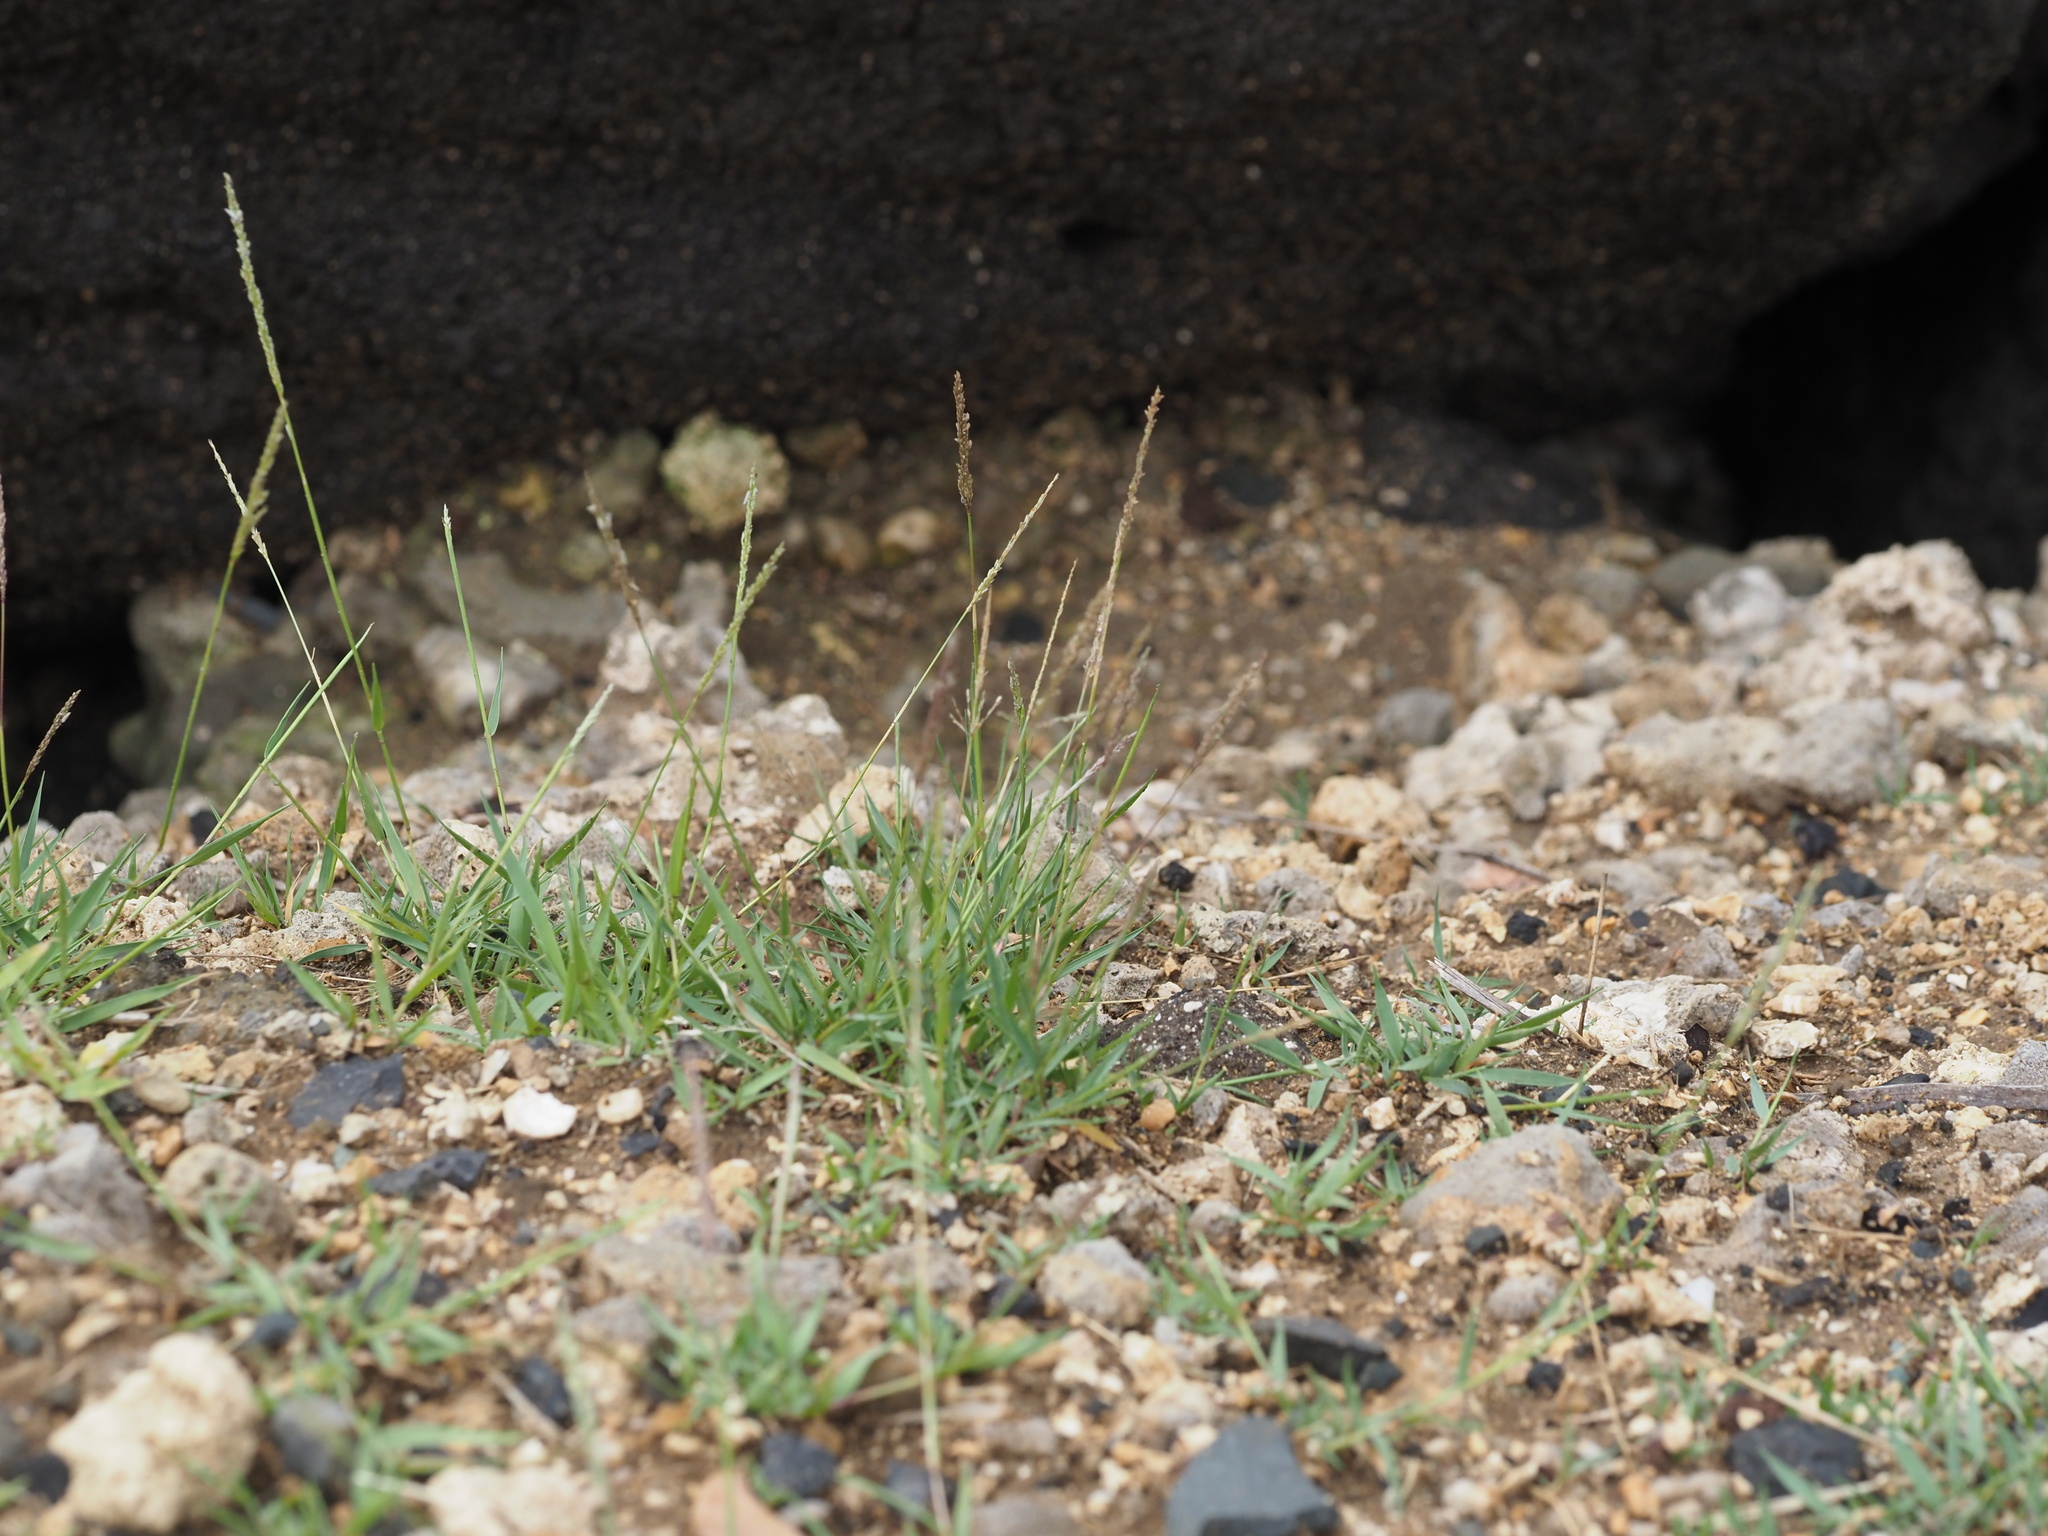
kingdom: Plantae
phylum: Tracheophyta
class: Liliopsida
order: Poales
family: Poaceae
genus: Sporobolus
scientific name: Sporobolus pyramidatus
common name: Whorled dropseed
